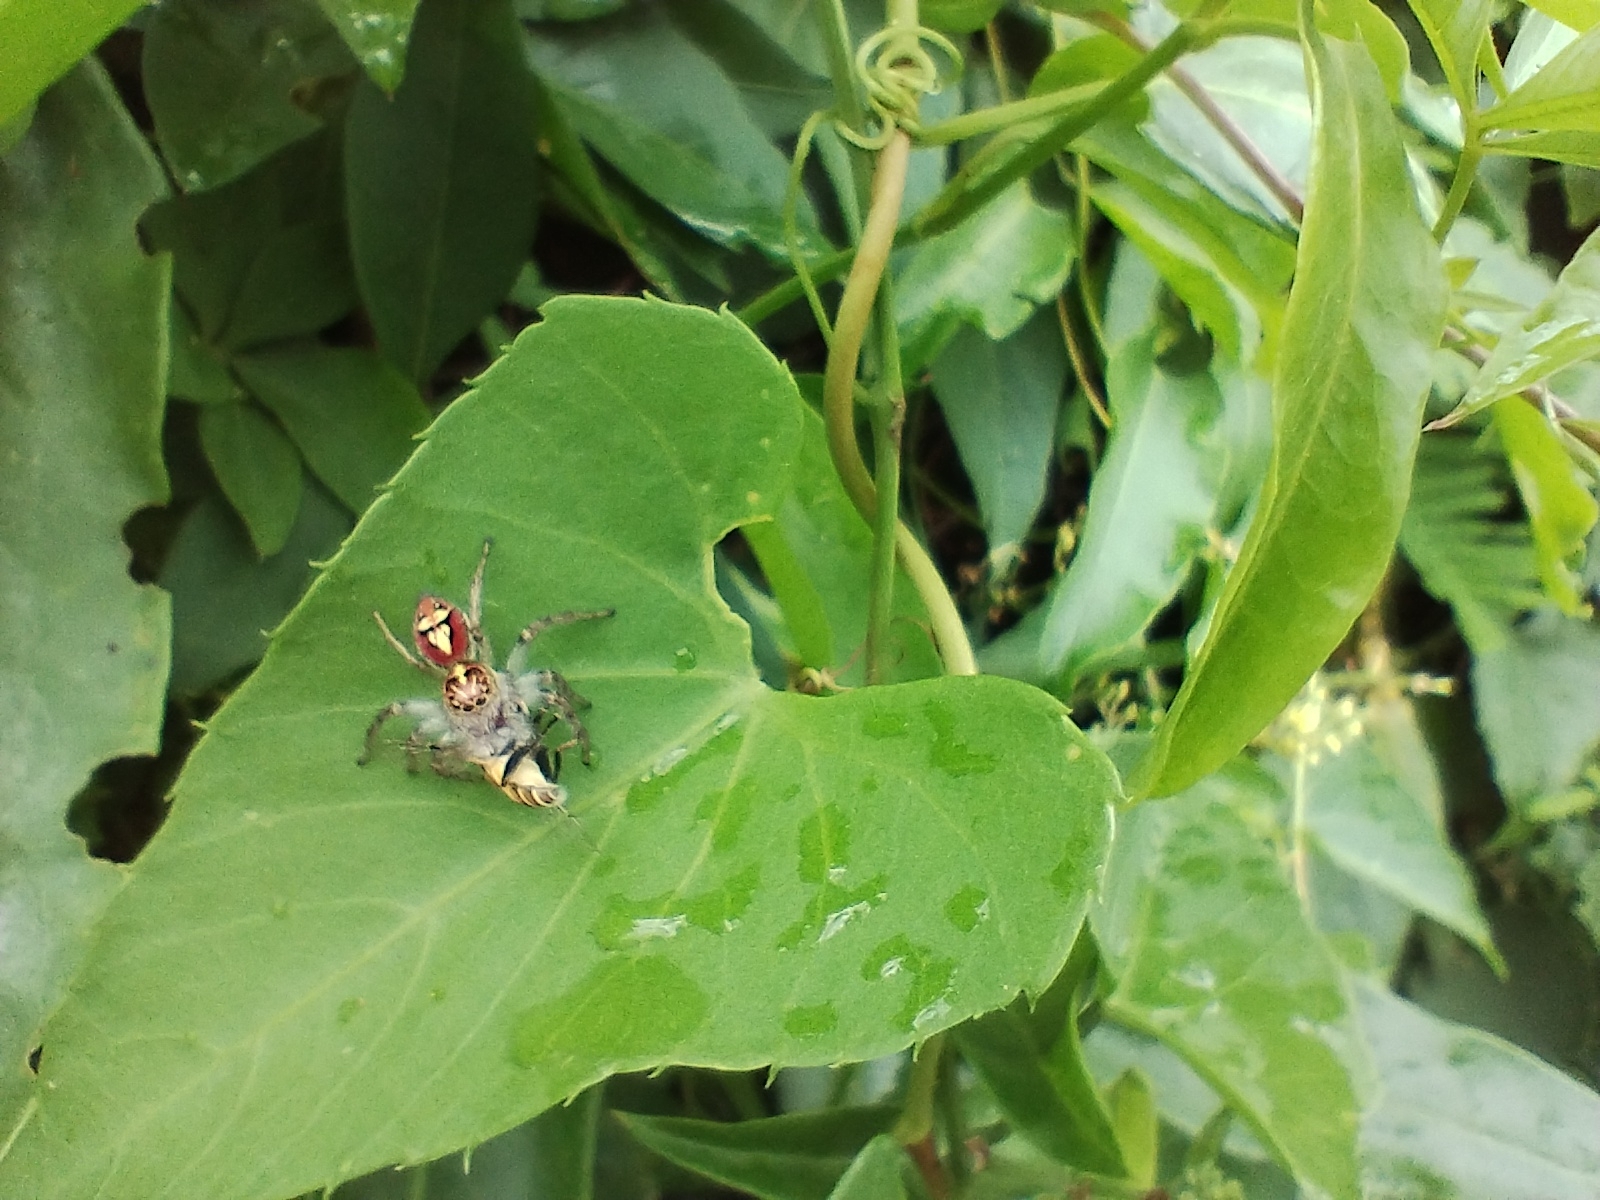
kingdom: Animalia
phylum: Arthropoda
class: Arachnida
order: Araneae
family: Salticidae
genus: Frigga
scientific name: Frigga quintensis
